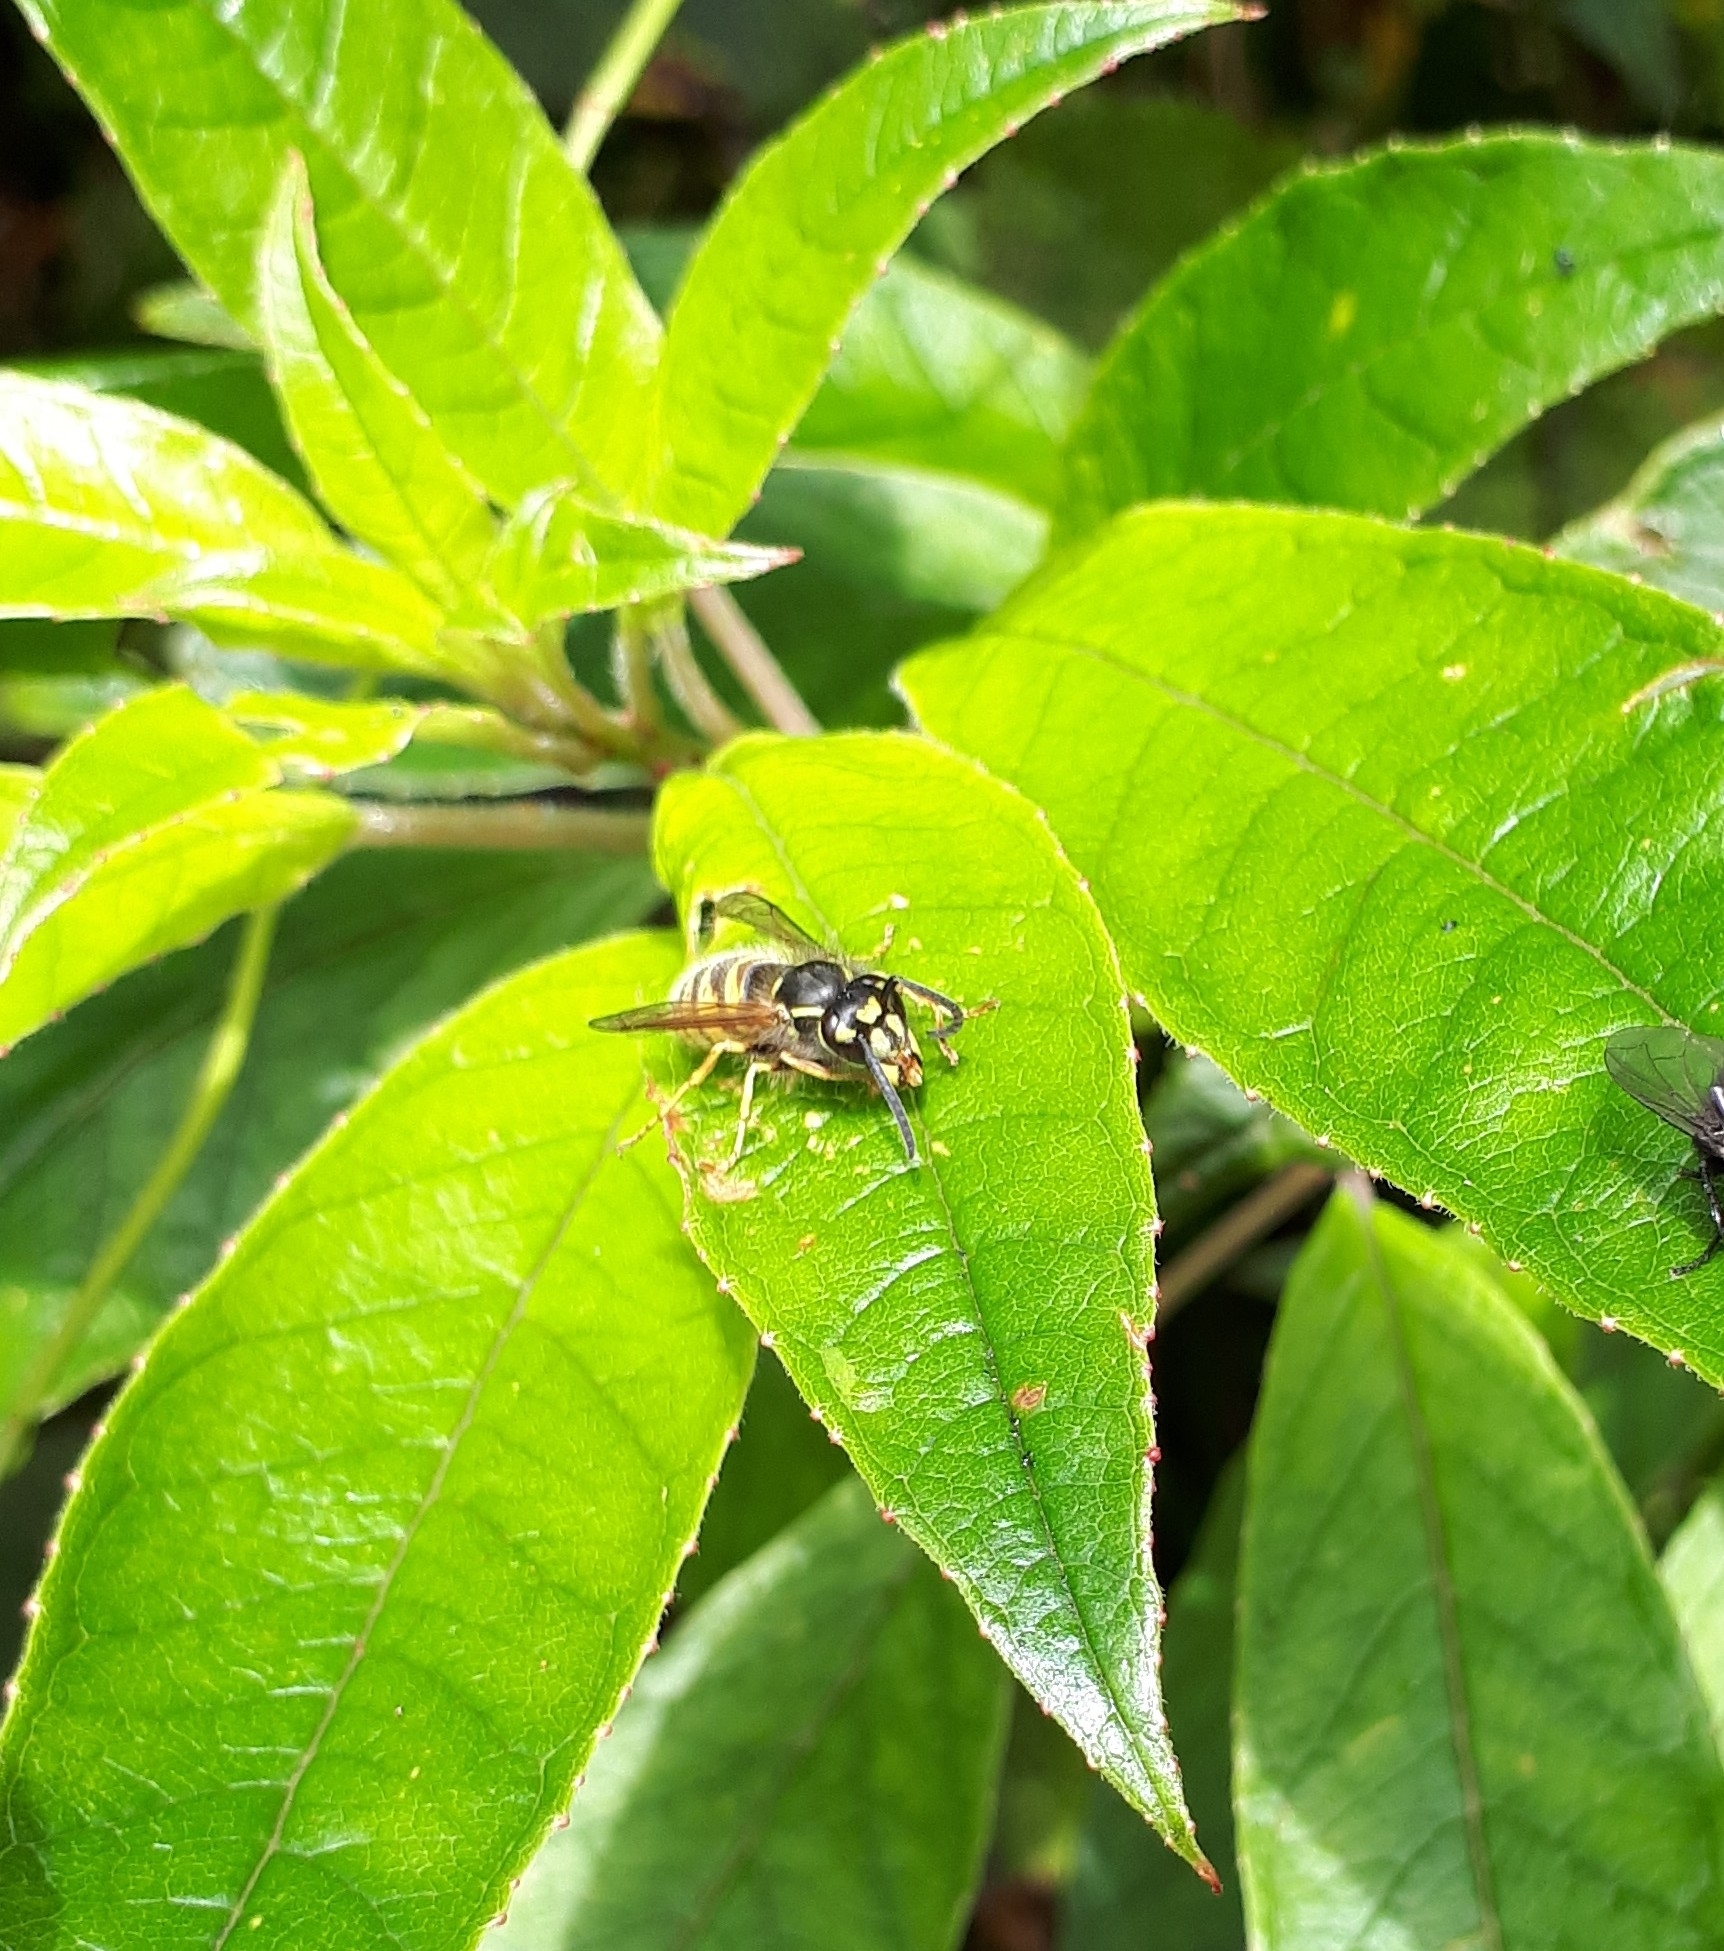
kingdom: Animalia
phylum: Arthropoda
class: Insecta
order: Hymenoptera
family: Vespidae
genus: Vespula
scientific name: Vespula vulgaris
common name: Common wasp
